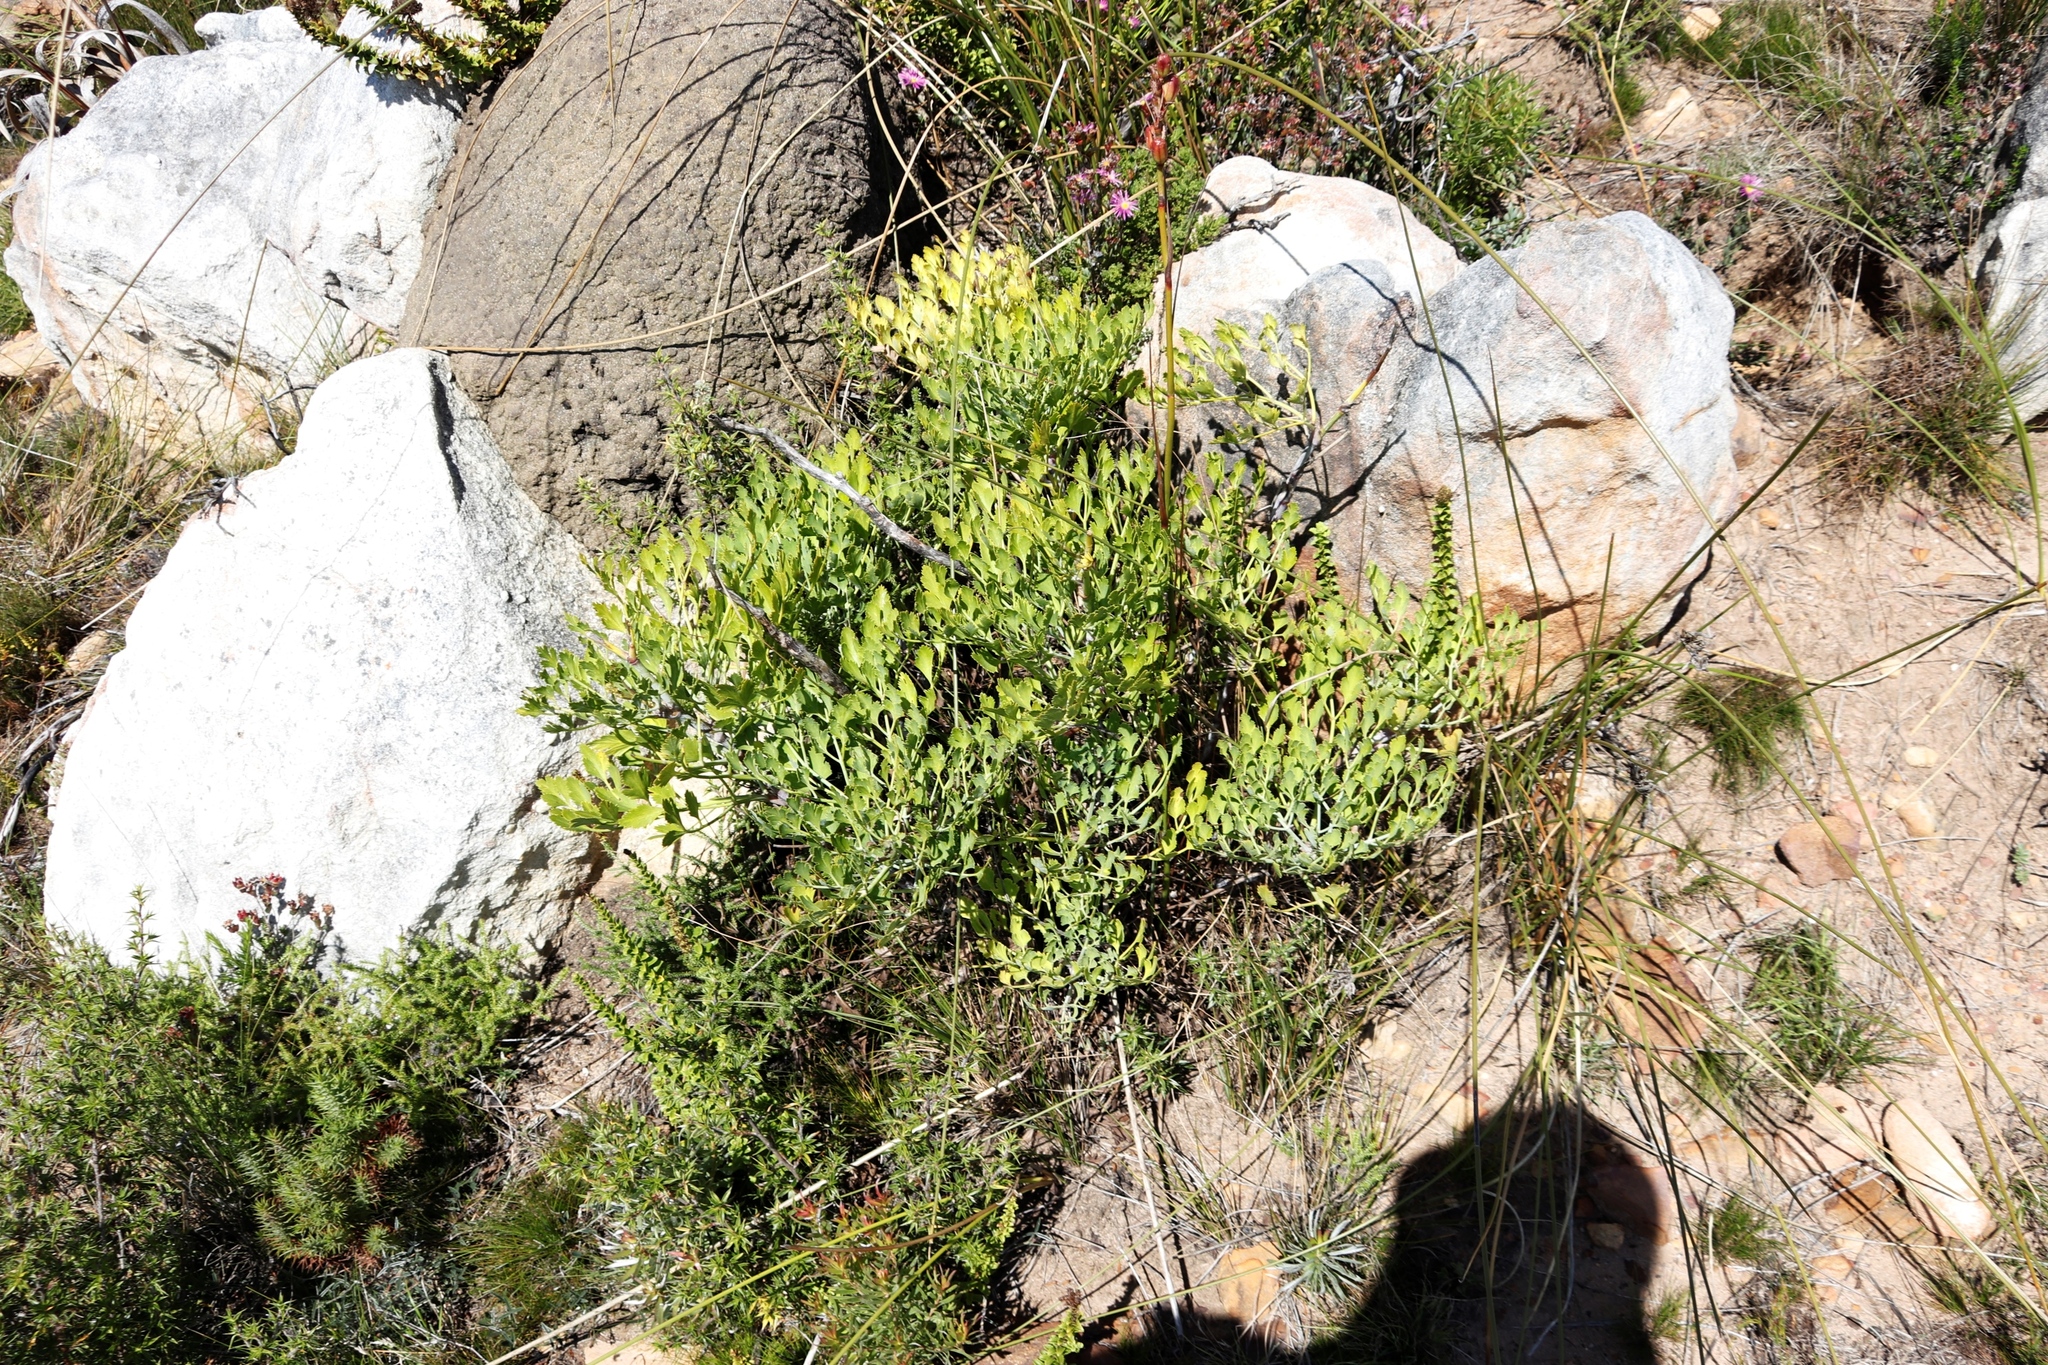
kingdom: Plantae
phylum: Tracheophyta
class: Magnoliopsida
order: Apiales
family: Apiaceae
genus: Notobubon
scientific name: Notobubon galbanum
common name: Blisterbush
